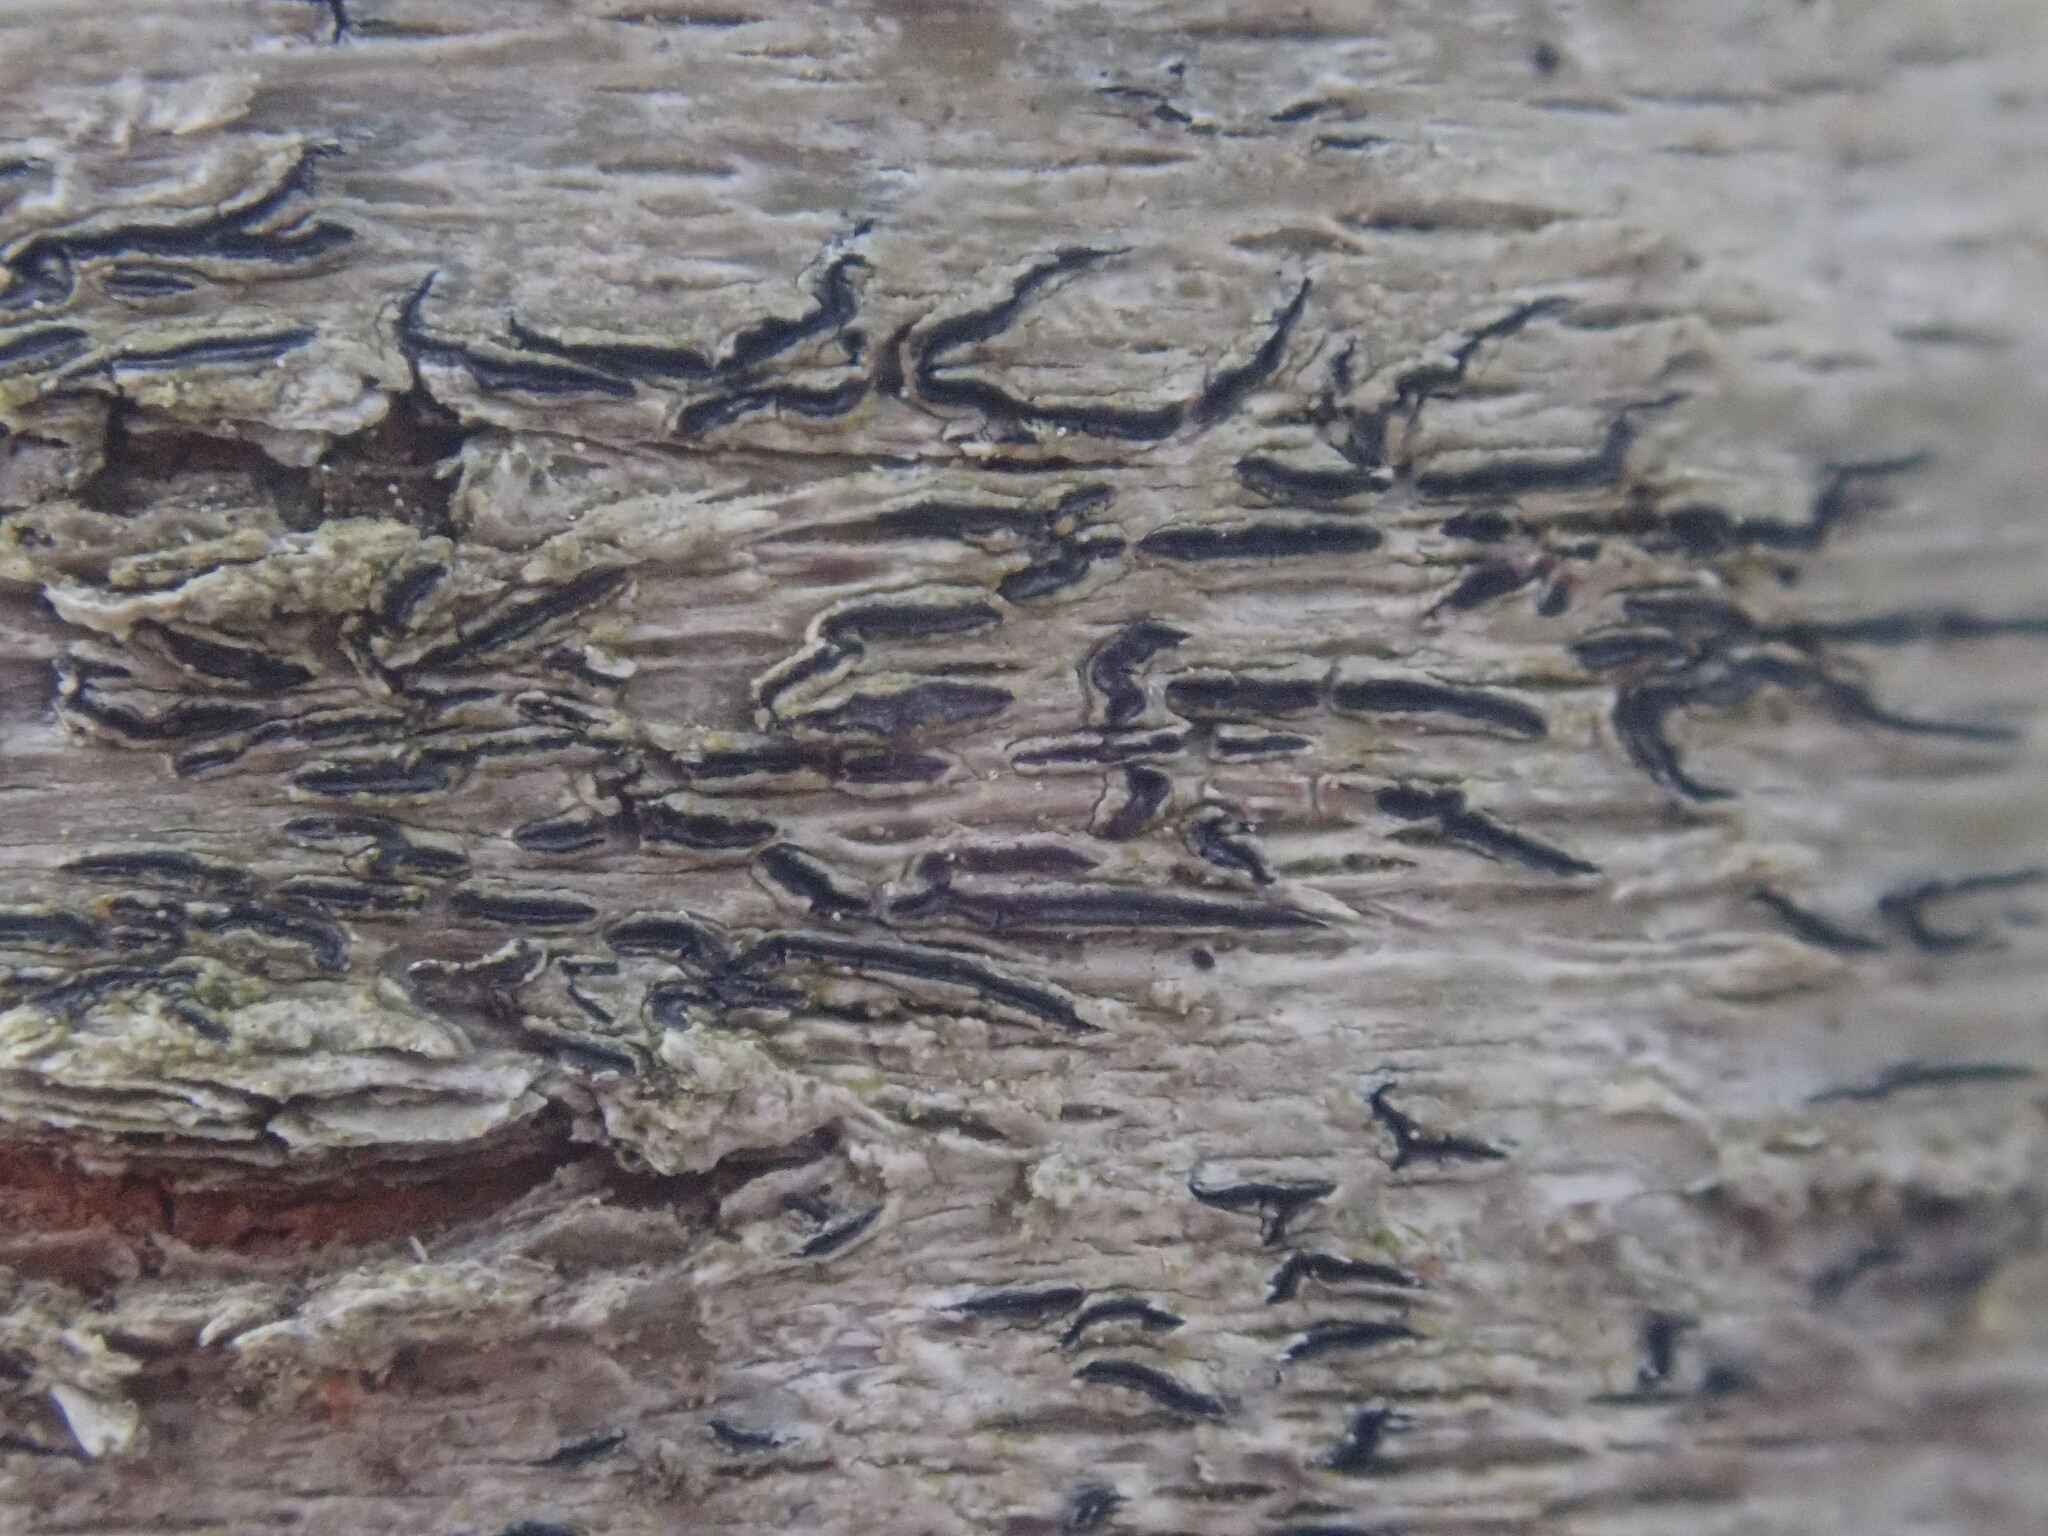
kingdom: Fungi
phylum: Ascomycota
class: Lecanoromycetes
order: Ostropales
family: Graphidaceae
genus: Graphis
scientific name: Graphis scripta
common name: Script lichen
